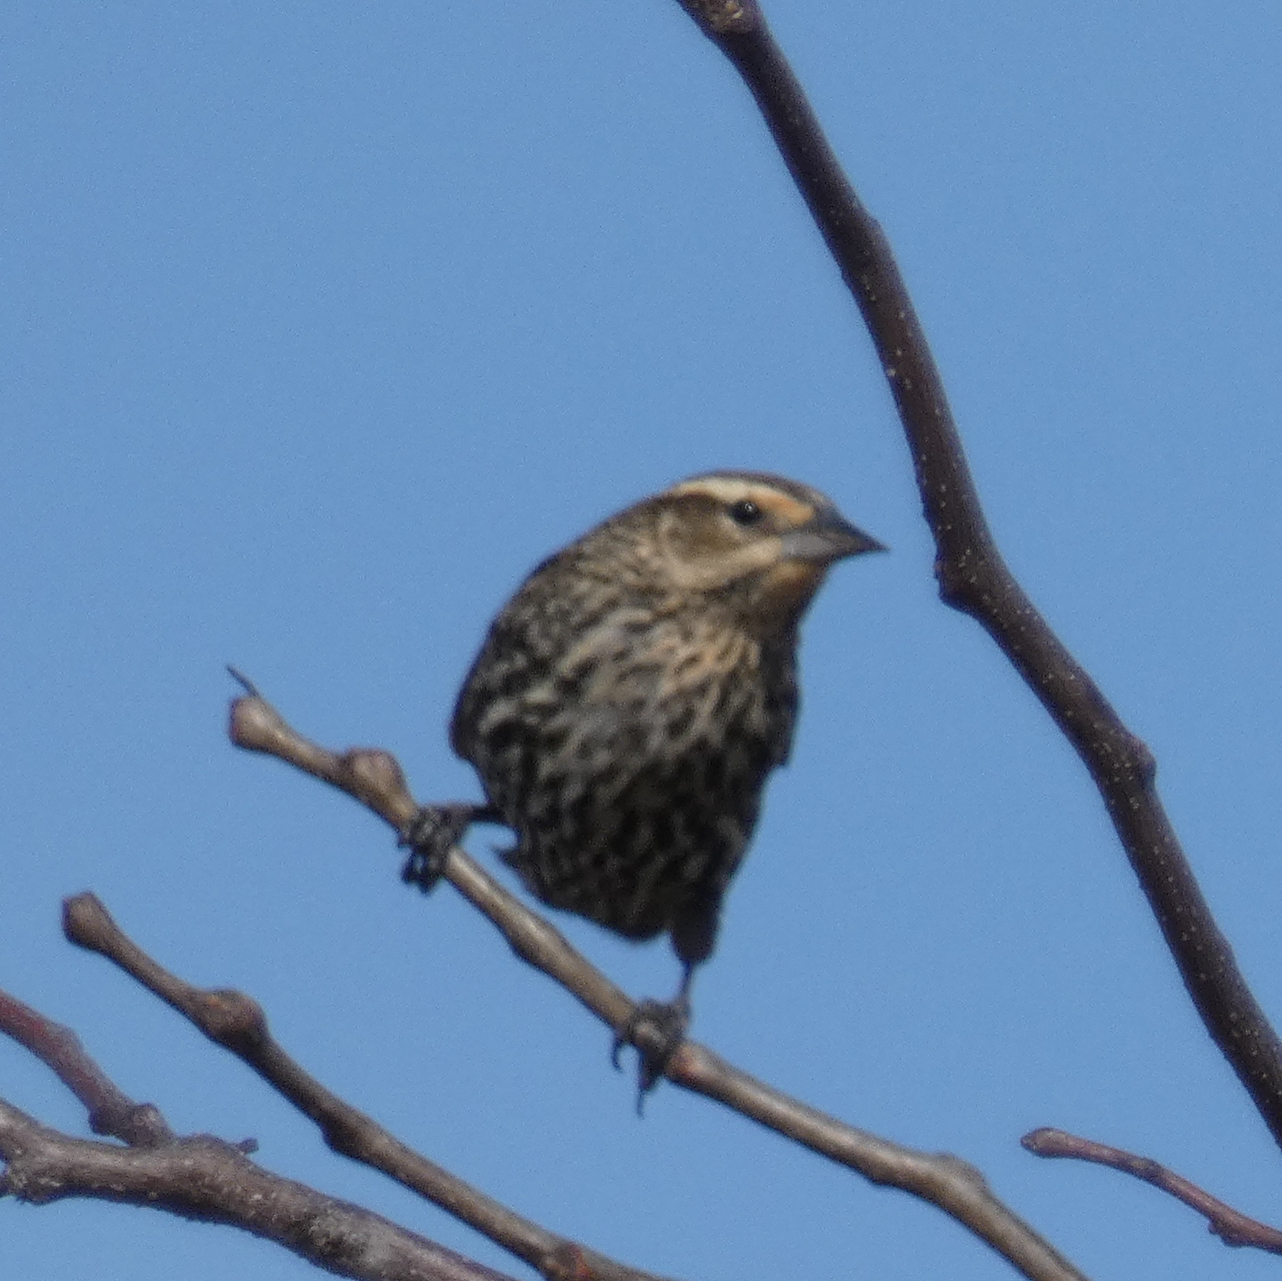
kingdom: Animalia
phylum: Chordata
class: Aves
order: Passeriformes
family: Icteridae
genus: Agelaius
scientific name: Agelaius phoeniceus
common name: Red-winged blackbird
